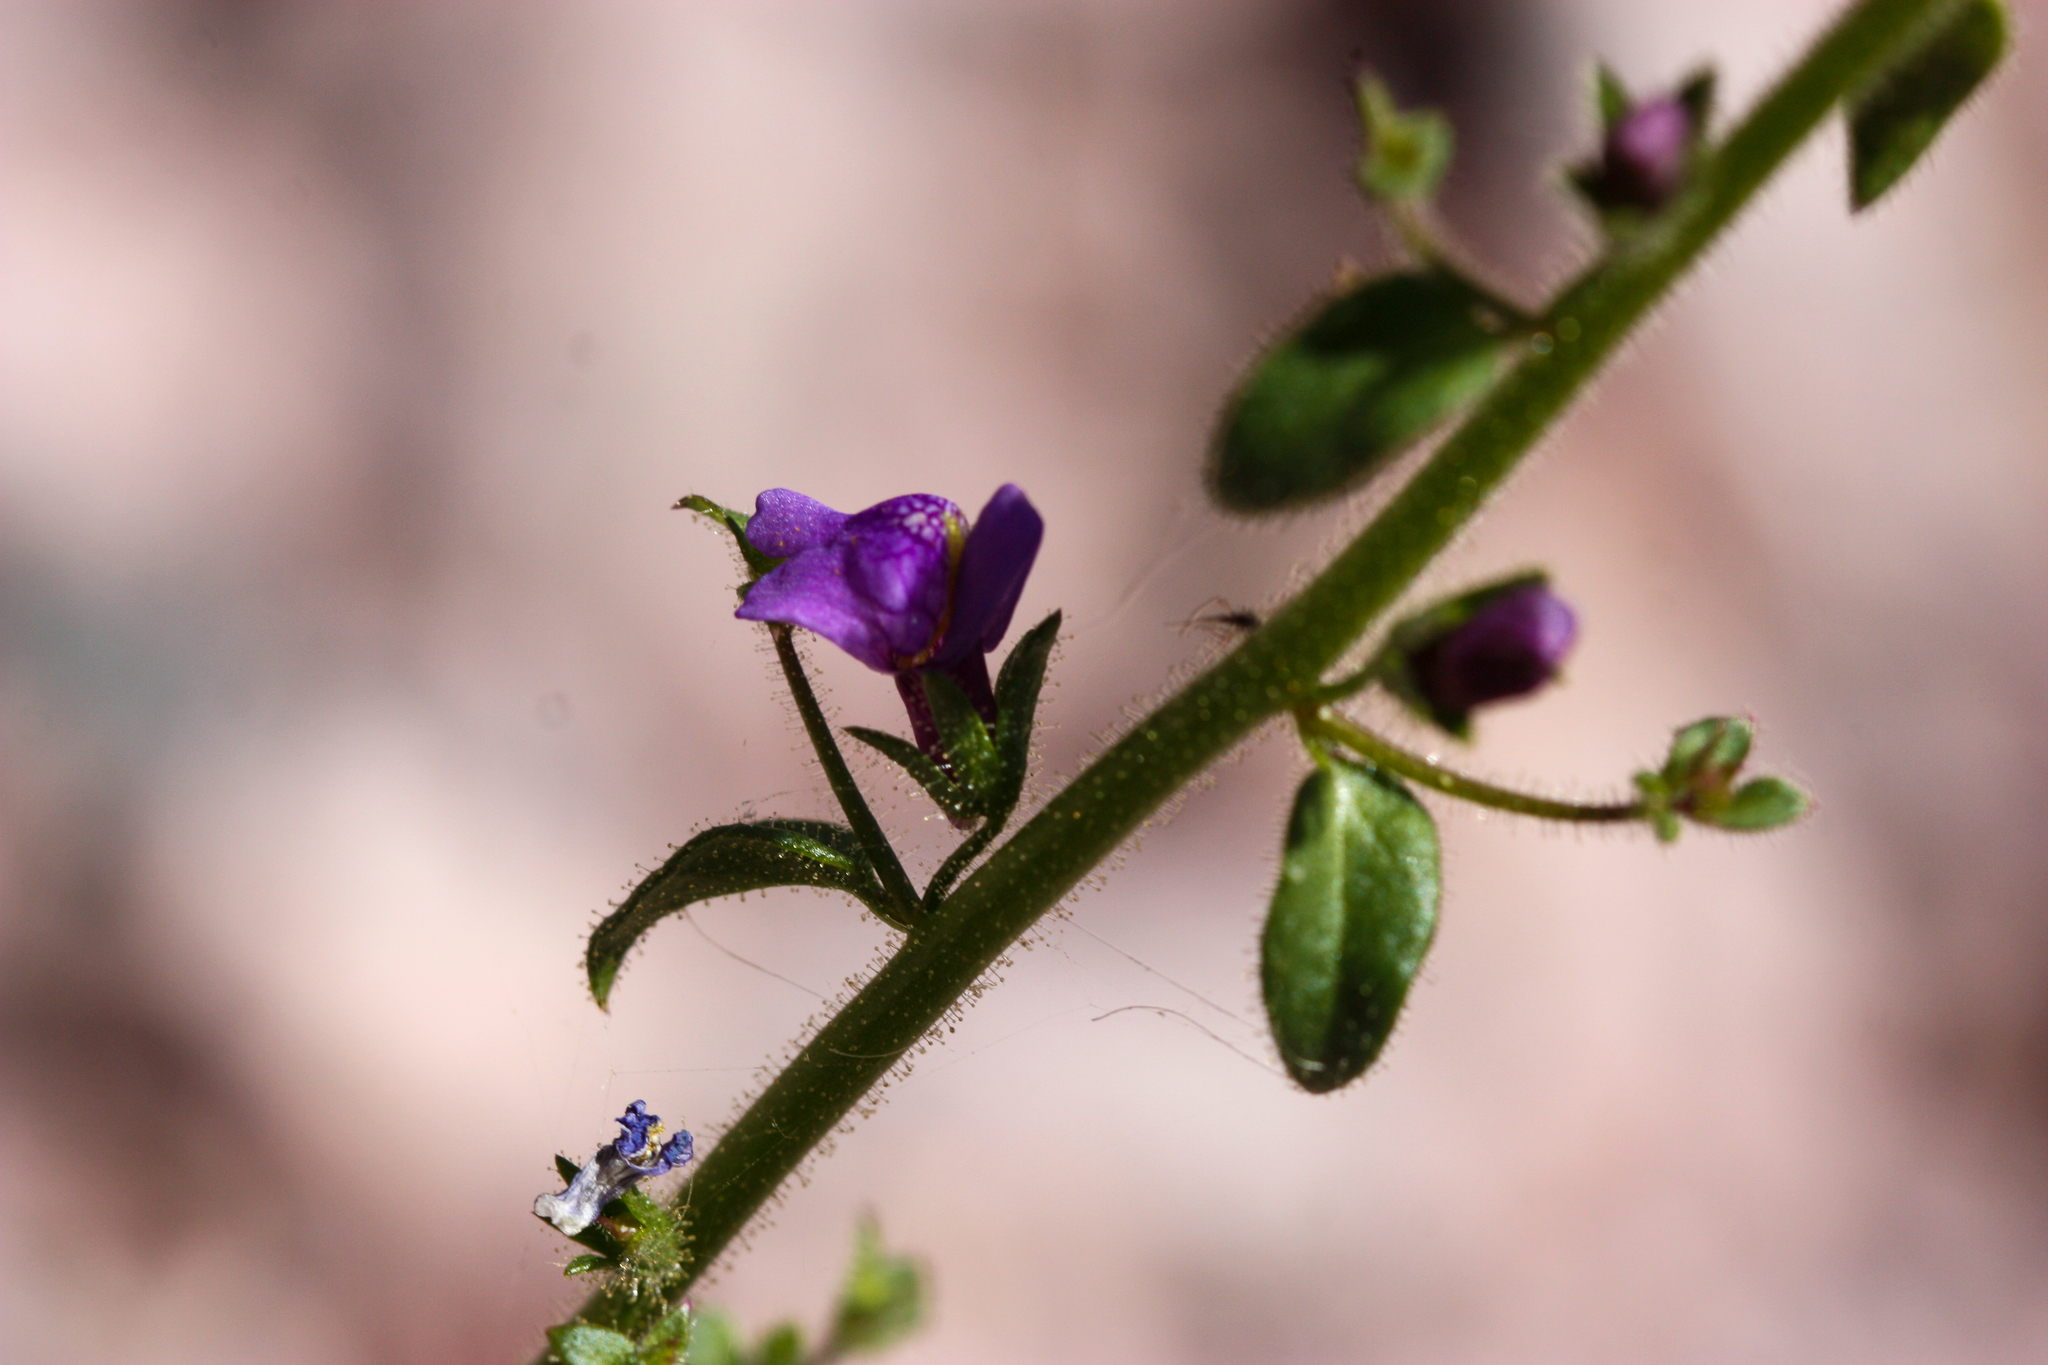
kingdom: Plantae
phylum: Tracheophyta
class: Magnoliopsida
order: Lamiales
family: Plantaginaceae
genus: Sairocarpus
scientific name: Sairocarpus nuttallianus
